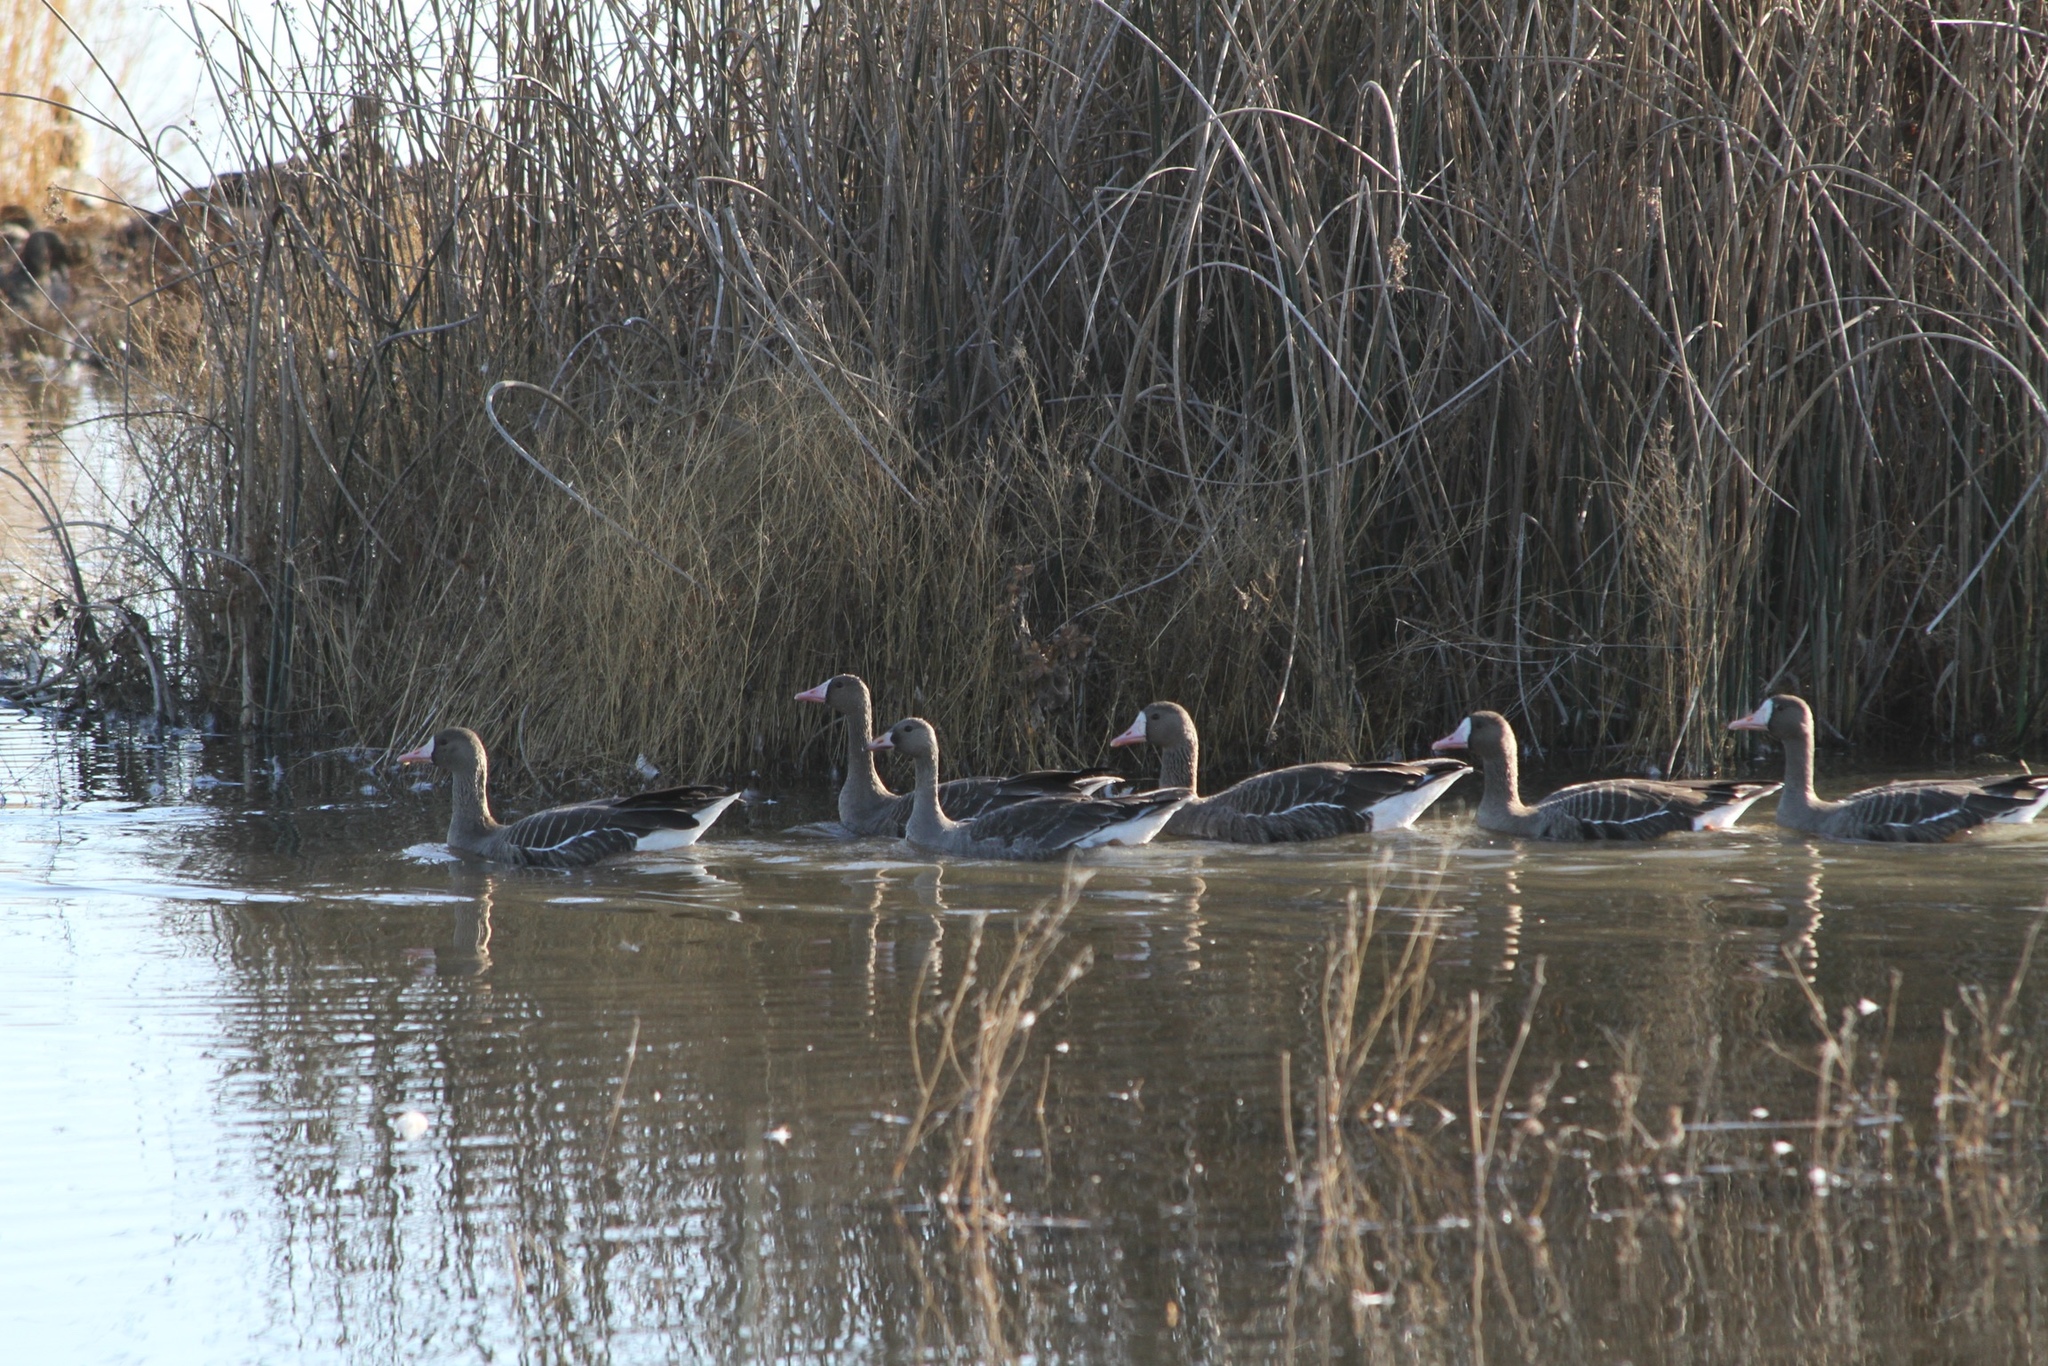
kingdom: Animalia
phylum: Chordata
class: Aves
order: Anseriformes
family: Anatidae
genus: Anser
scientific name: Anser albifrons
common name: Greater white-fronted goose
